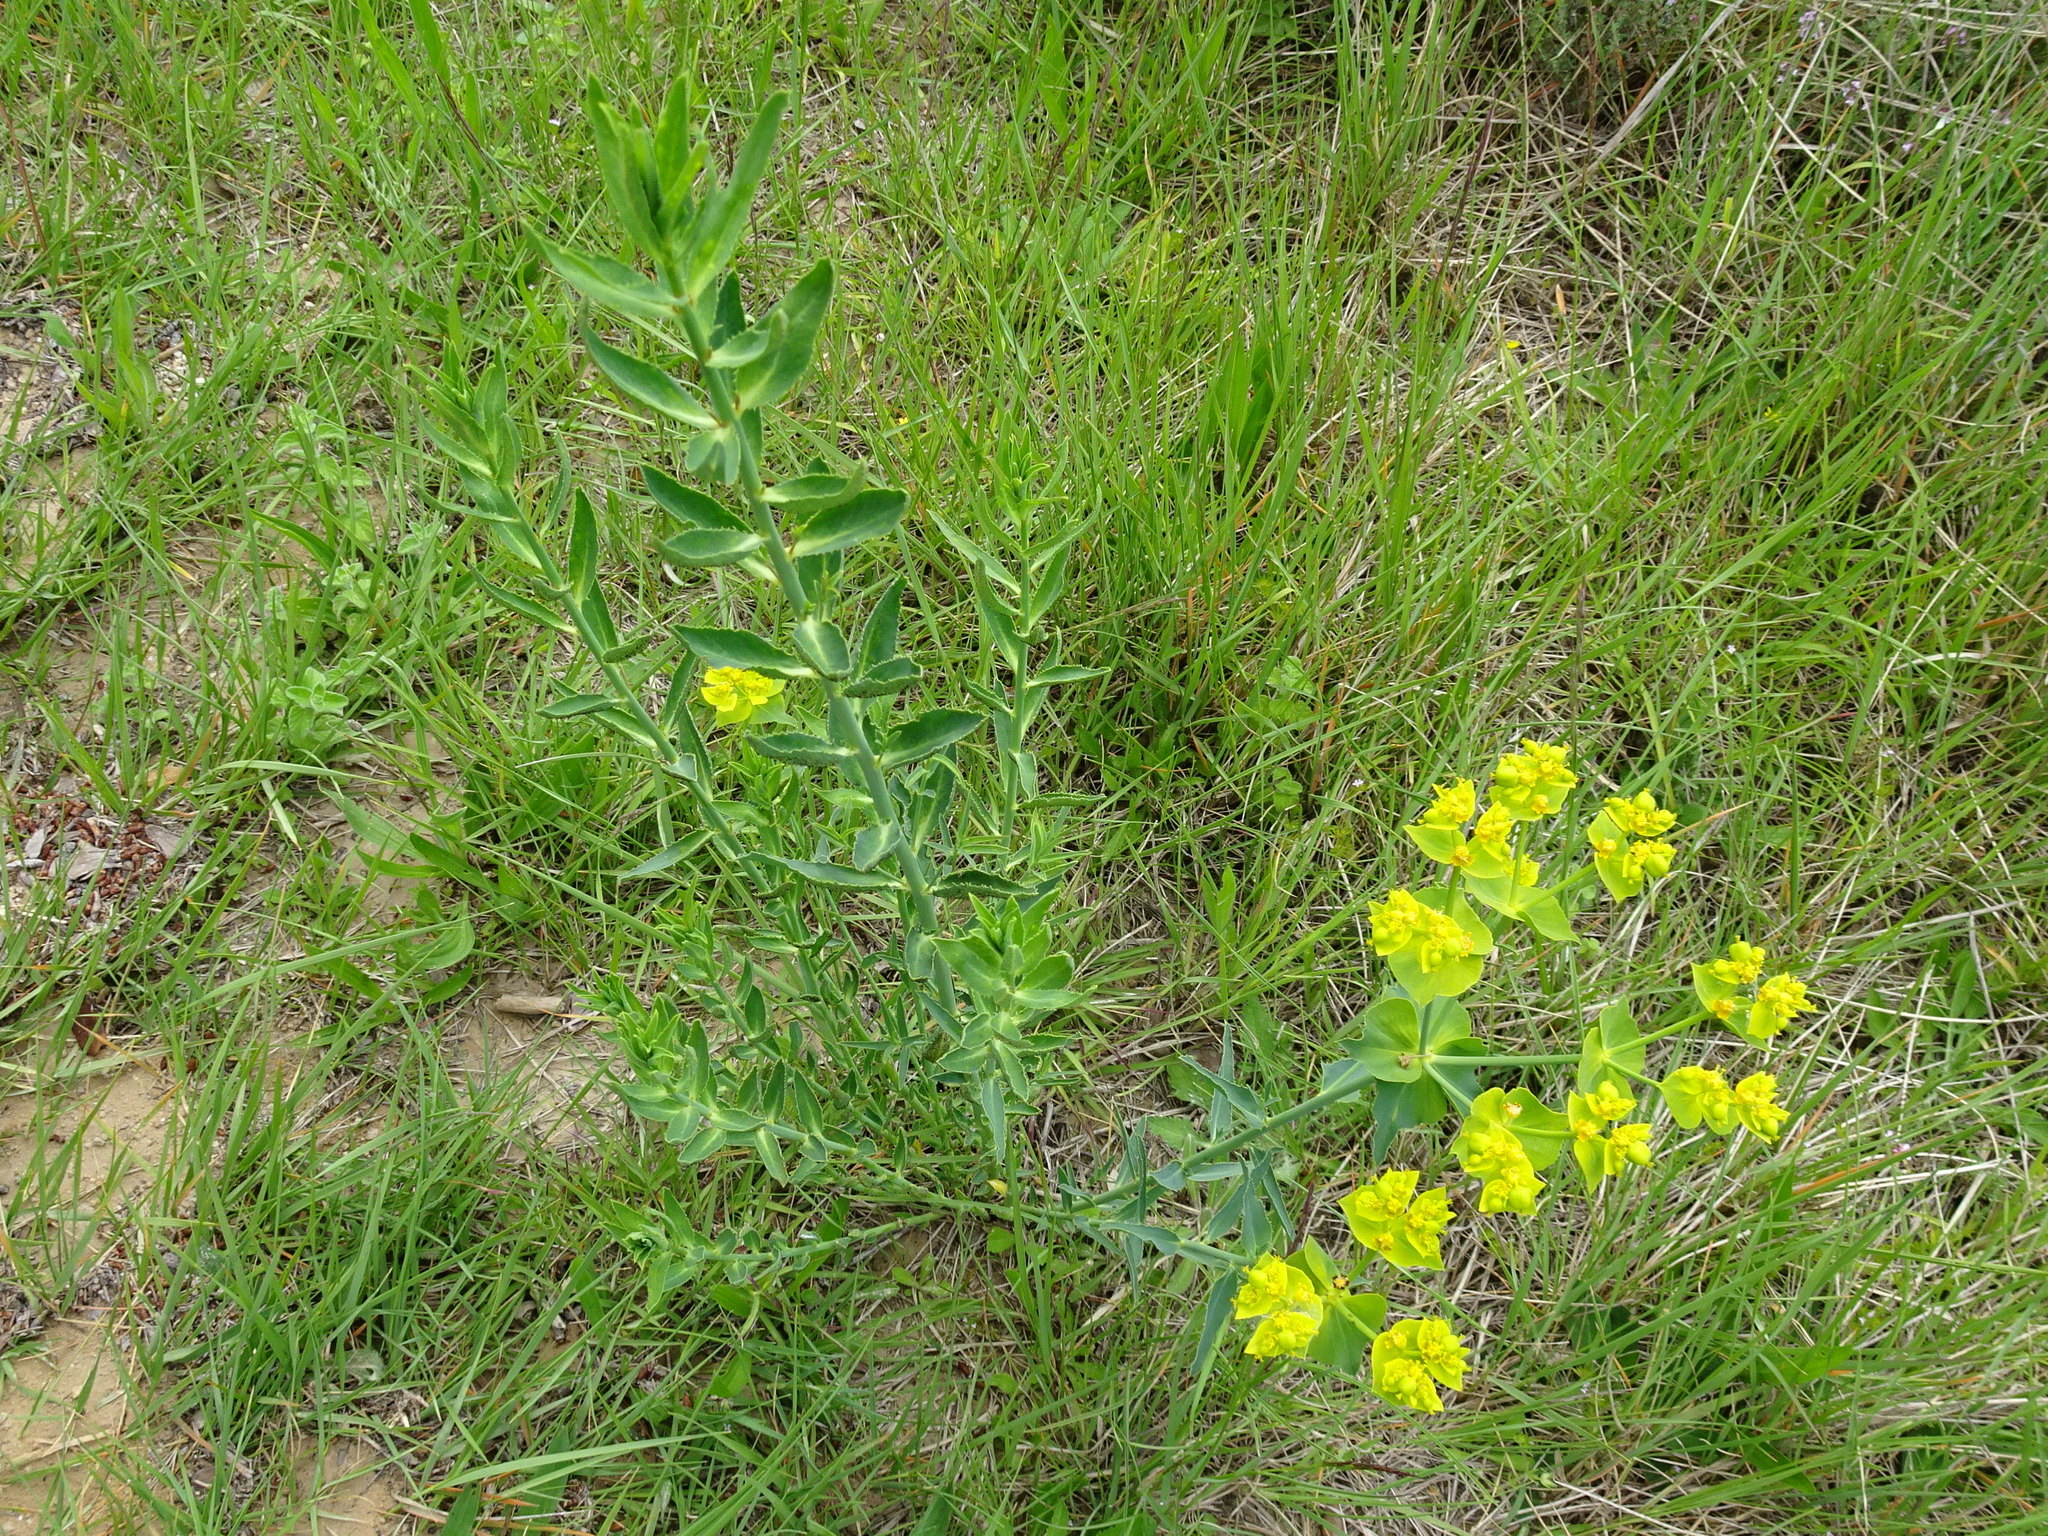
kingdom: Plantae
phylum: Tracheophyta
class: Magnoliopsida
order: Malpighiales
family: Euphorbiaceae
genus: Euphorbia
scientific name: Euphorbia serrata
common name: Serrate spurge
